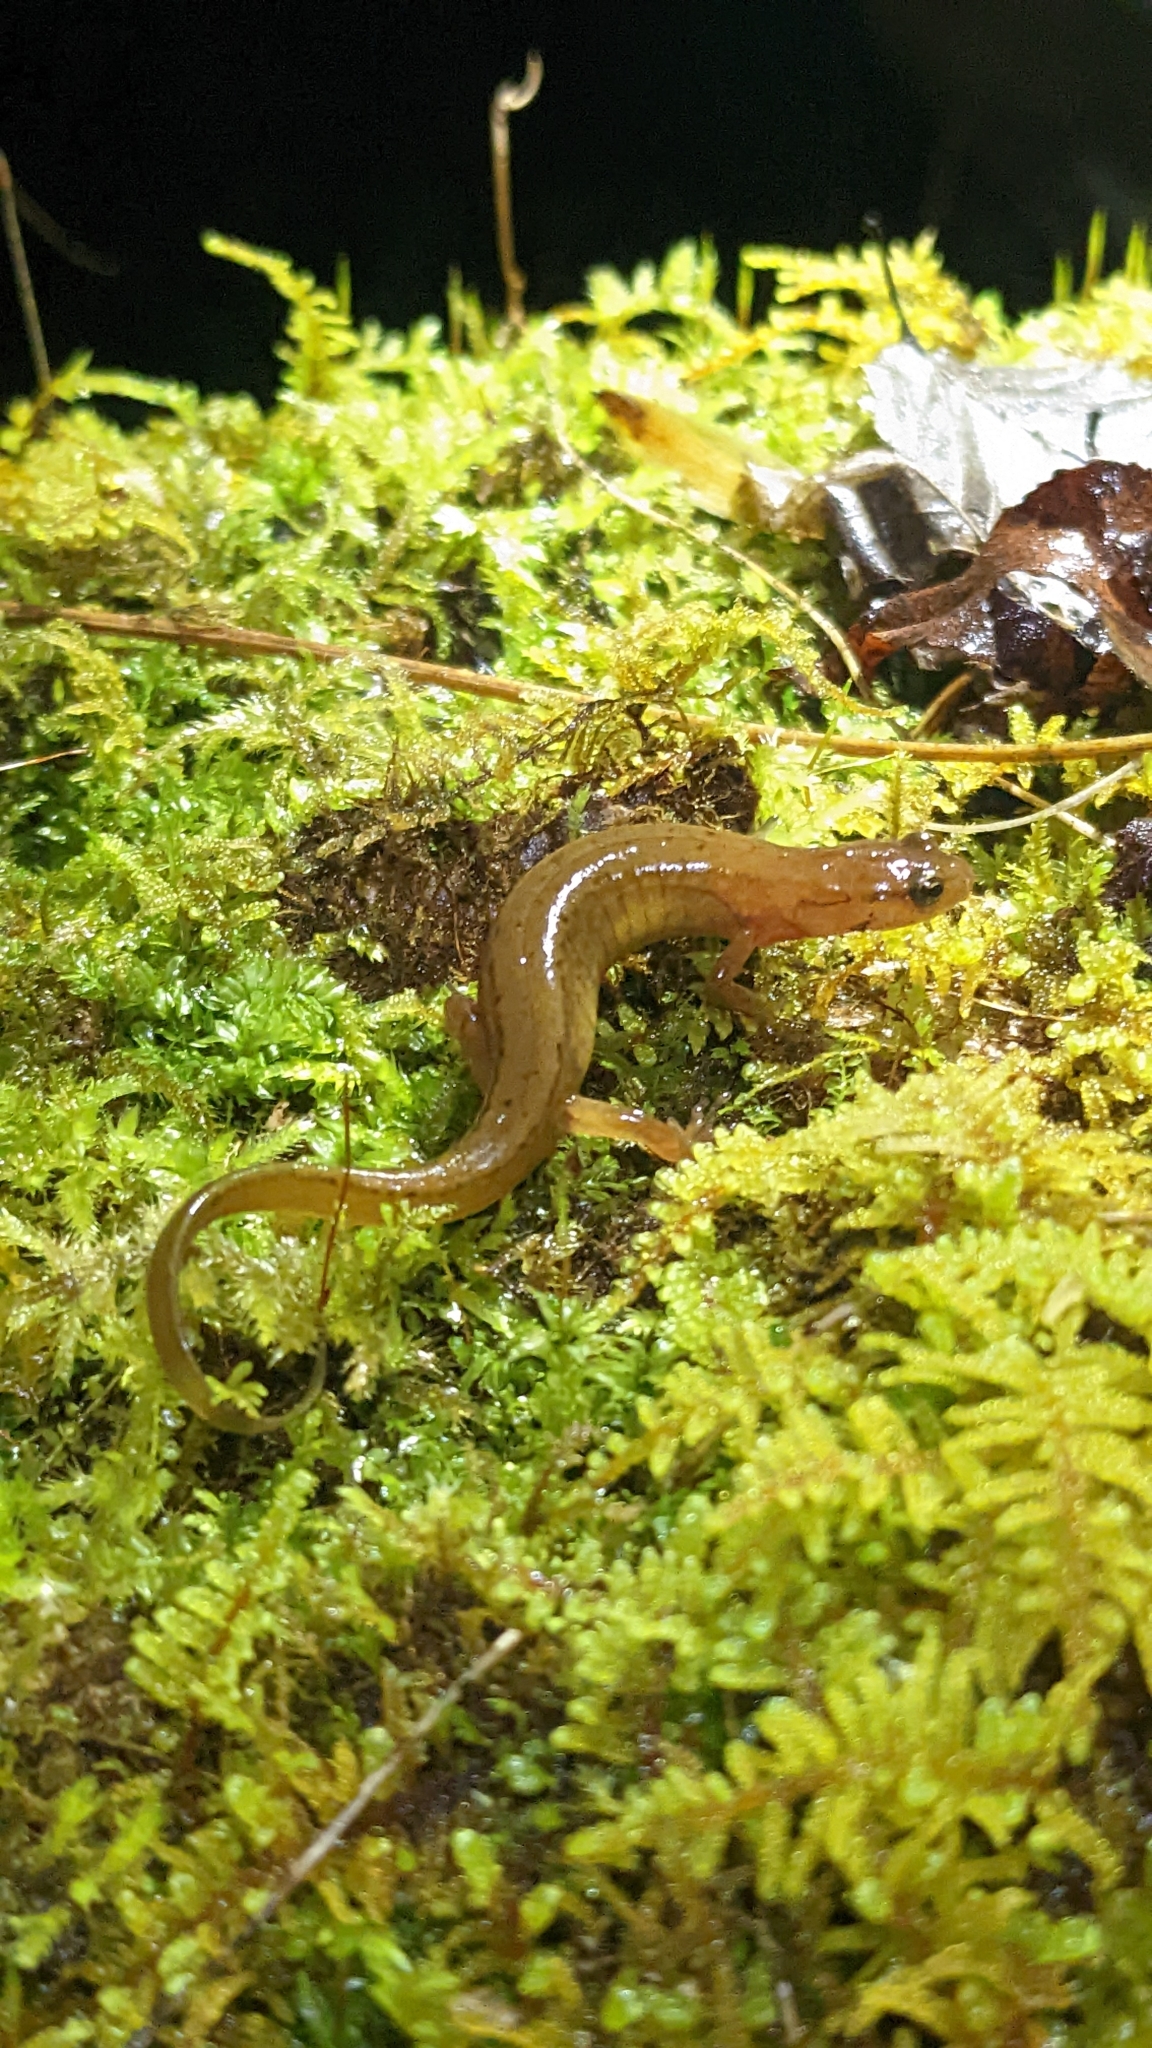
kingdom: Animalia
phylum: Chordata
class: Amphibia
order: Caudata
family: Plethodontidae
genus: Eurycea
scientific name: Eurycea junaluska
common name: Junaluska salamander
